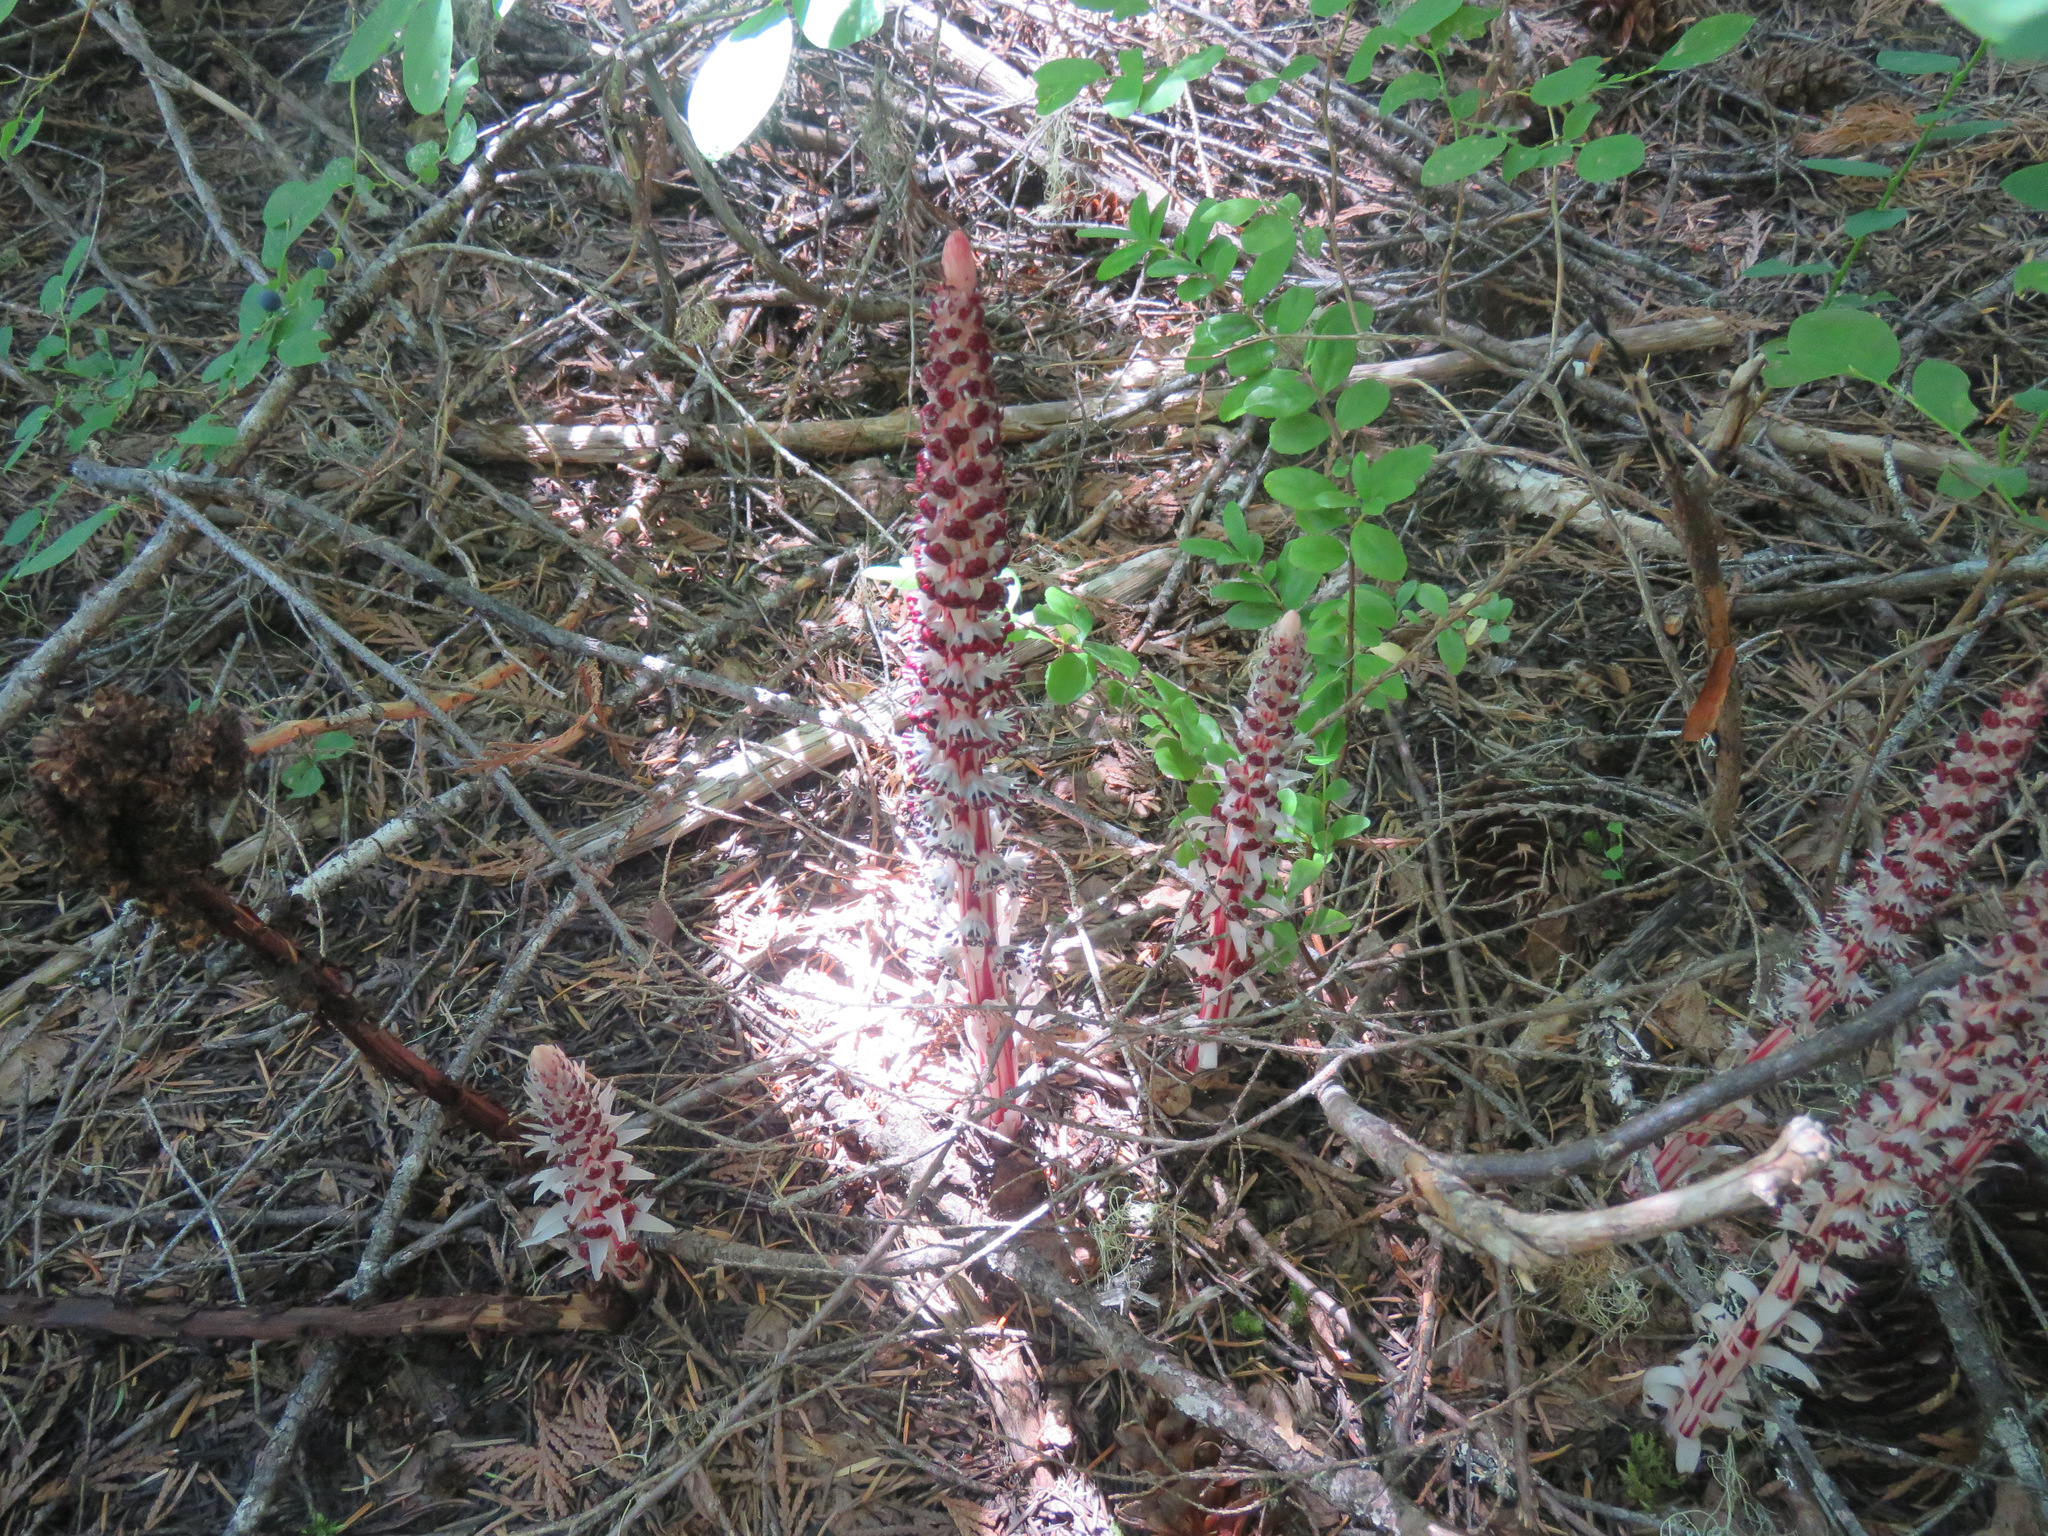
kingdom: Plantae
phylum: Tracheophyta
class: Magnoliopsida
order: Ericales
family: Ericaceae
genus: Allotropa
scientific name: Allotropa virgata
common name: Candy-striped allotropa
